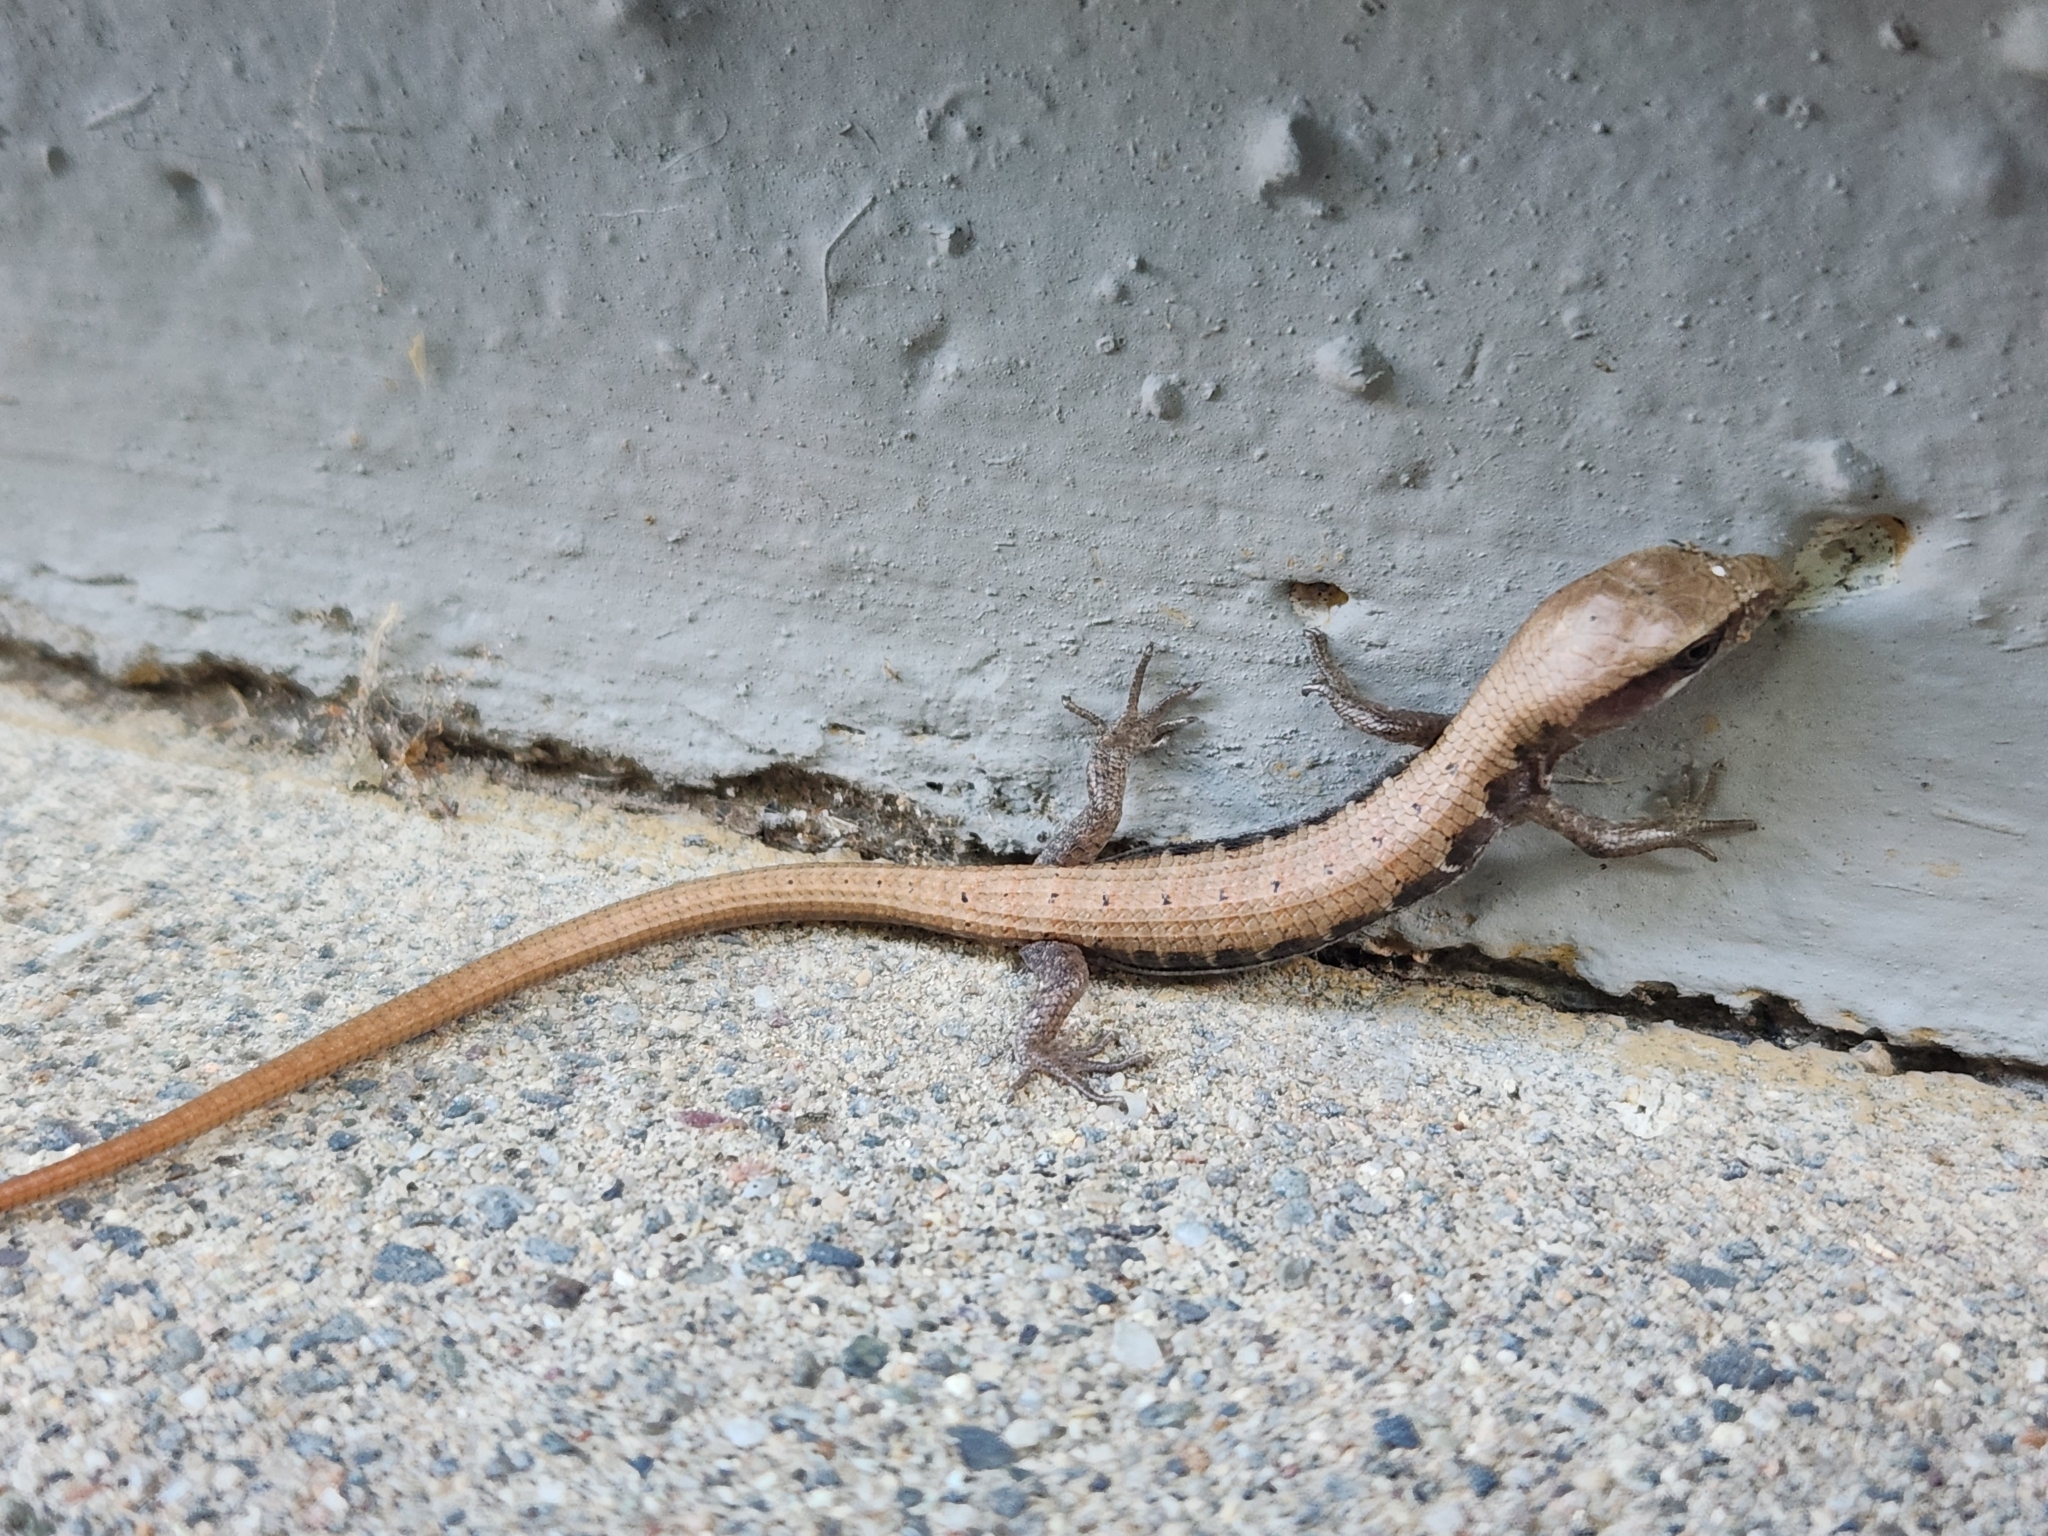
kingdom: Animalia
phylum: Chordata
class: Squamata
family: Anguidae
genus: Elgaria
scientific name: Elgaria multicarinata
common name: Southern alligator lizard
